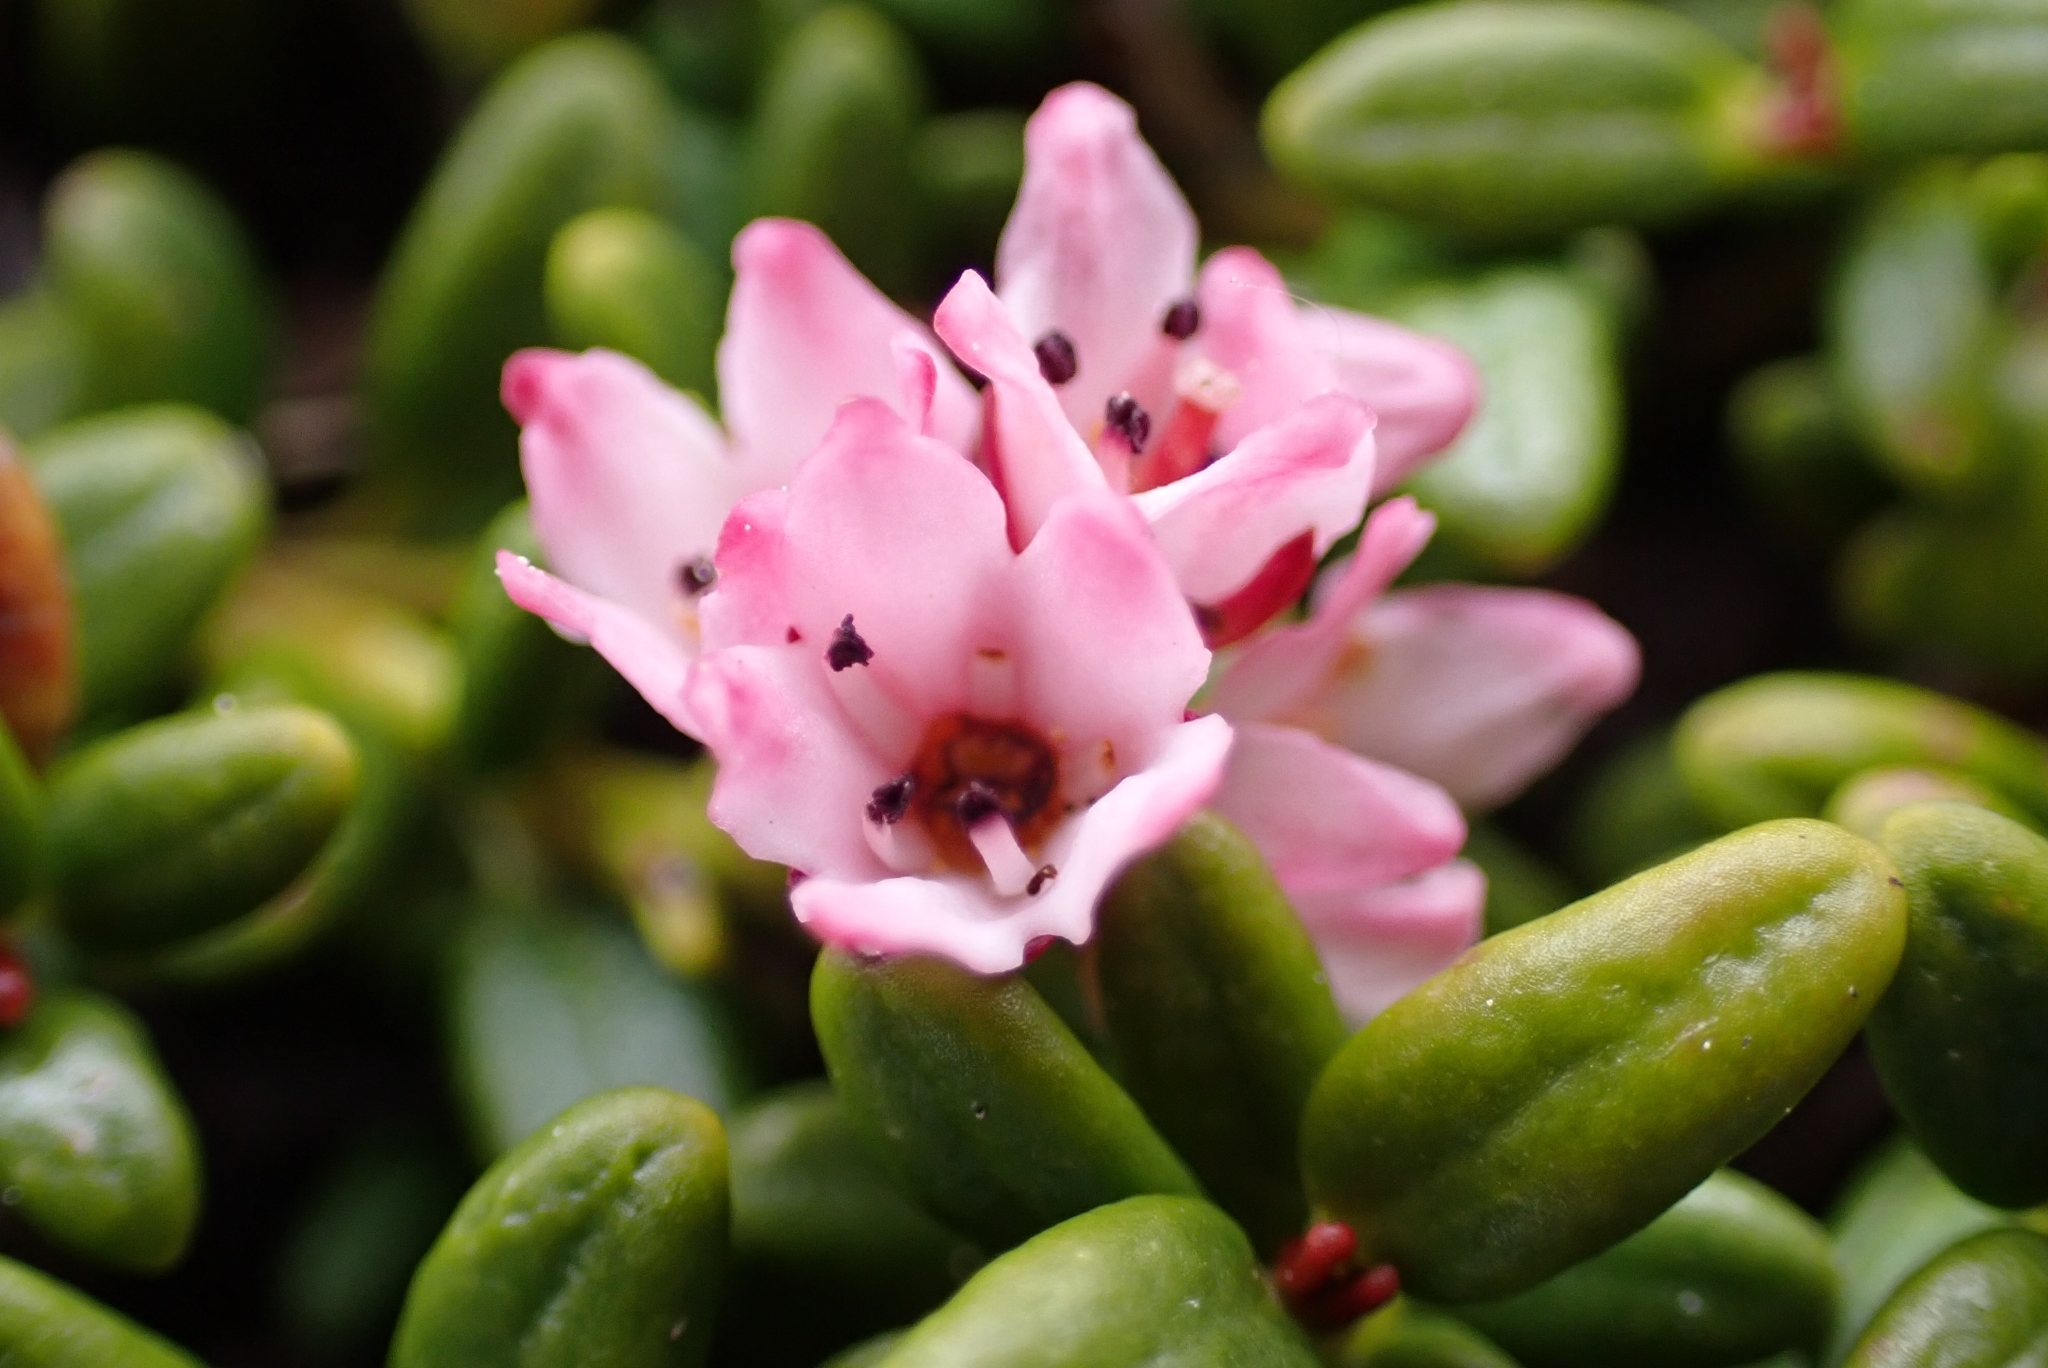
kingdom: Plantae
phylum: Tracheophyta
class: Magnoliopsida
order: Ericales
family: Ericaceae
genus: Kalmia
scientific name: Kalmia procumbens
